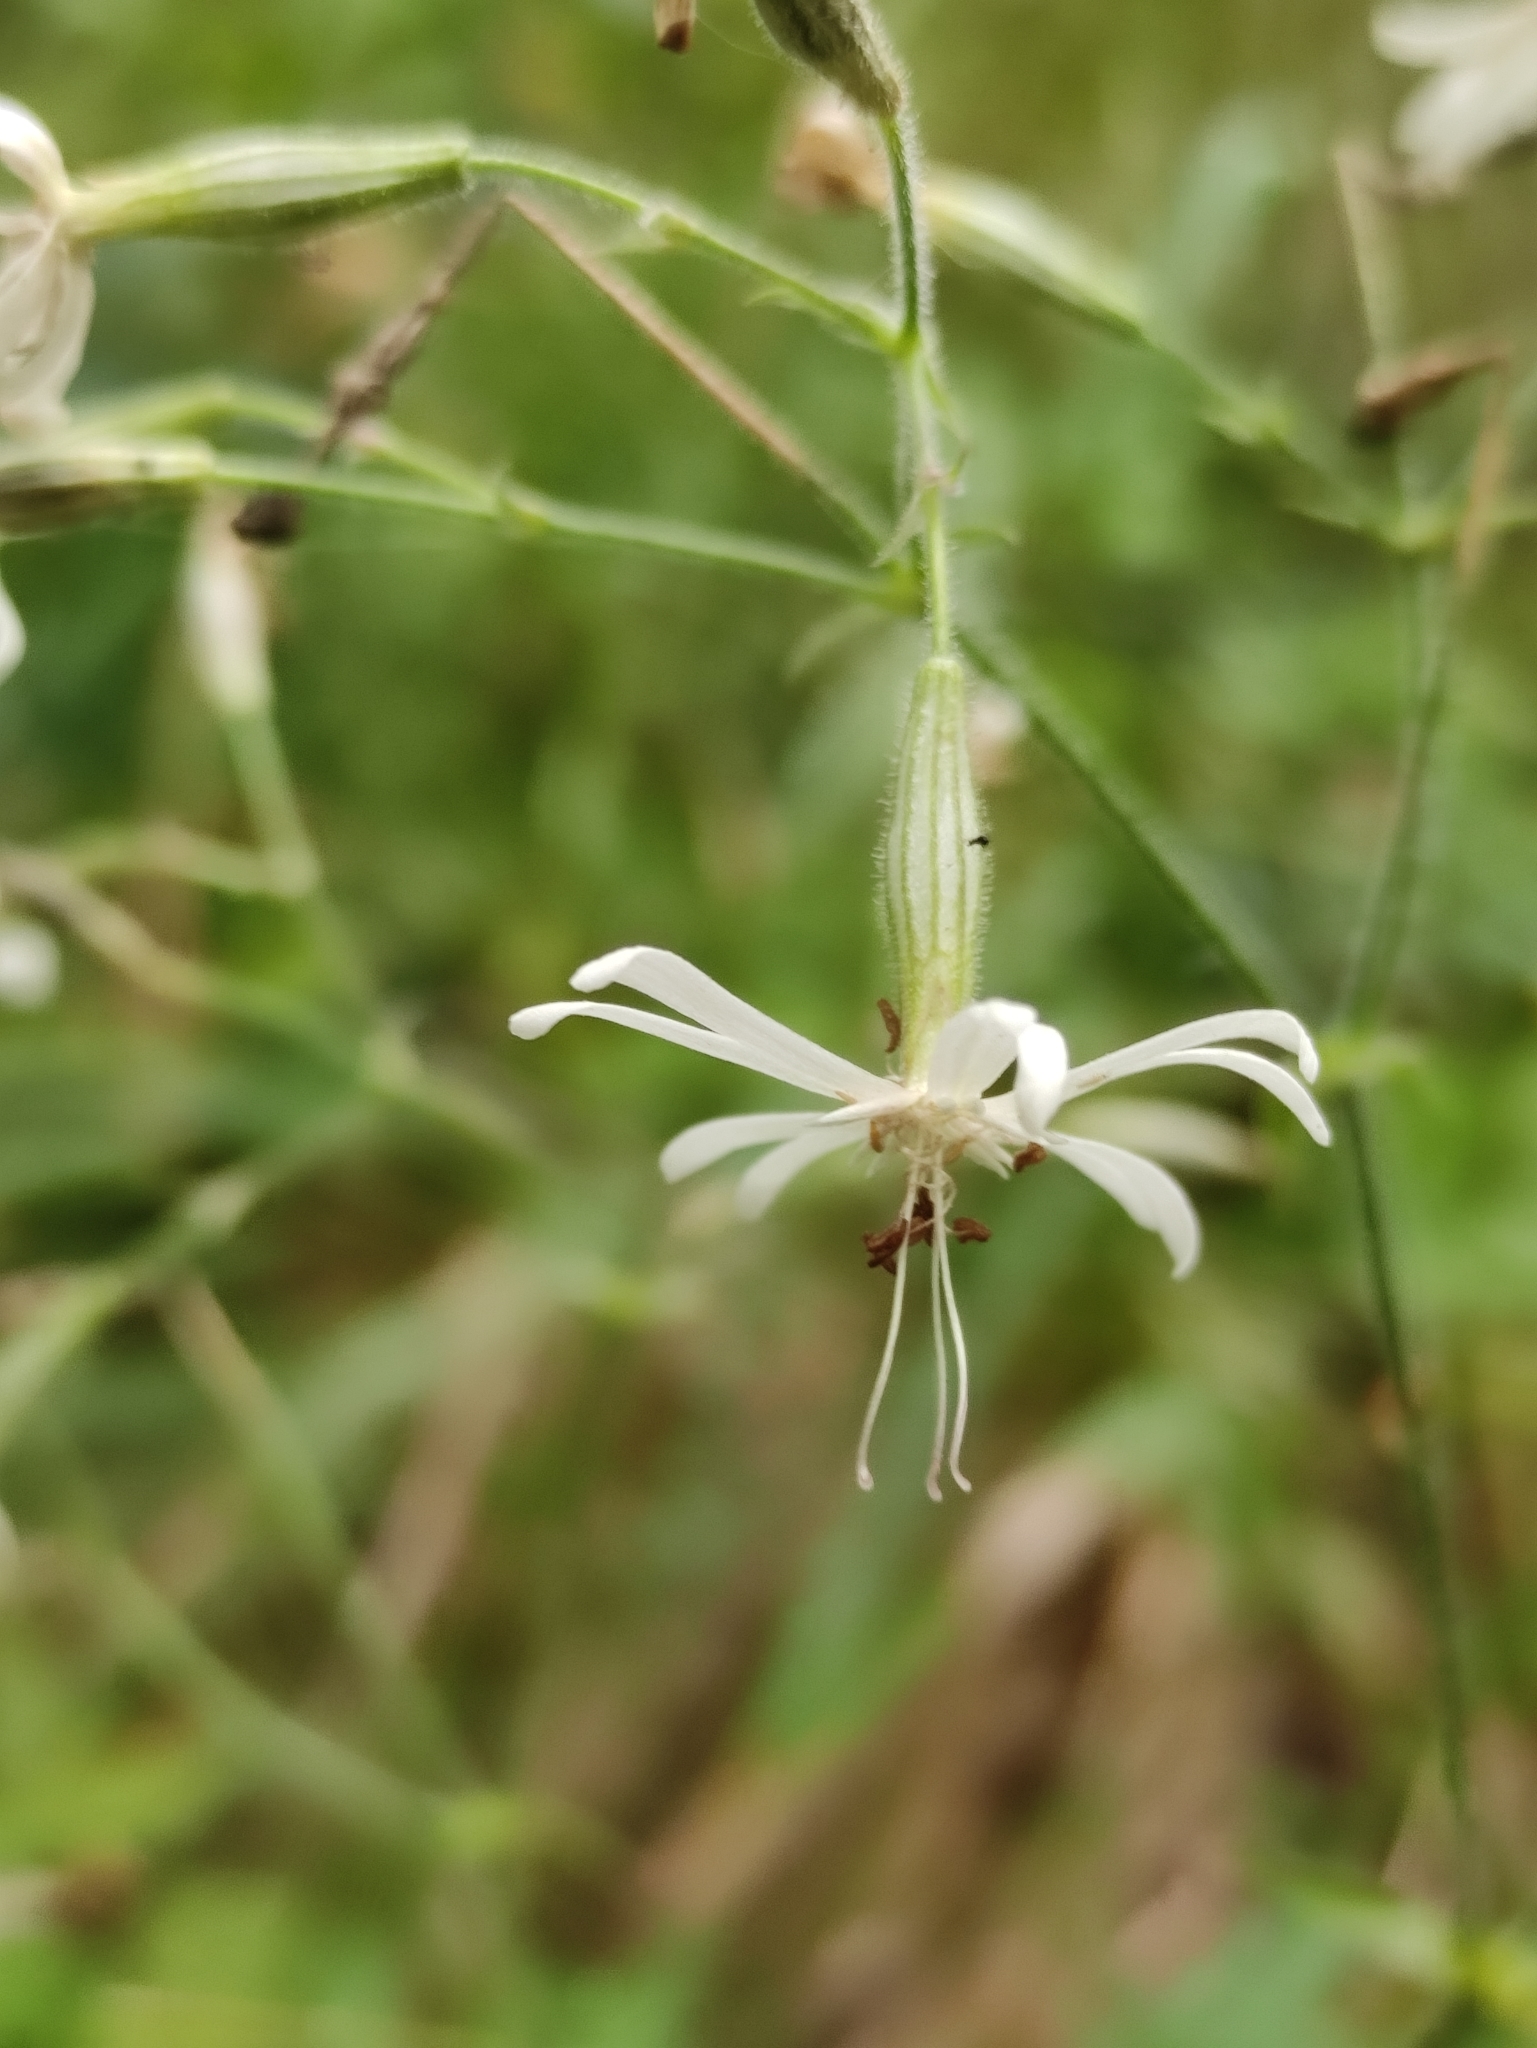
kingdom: Plantae
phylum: Tracheophyta
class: Magnoliopsida
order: Caryophyllales
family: Caryophyllaceae
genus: Silene
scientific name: Silene nutans
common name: Nottingham catchfly
